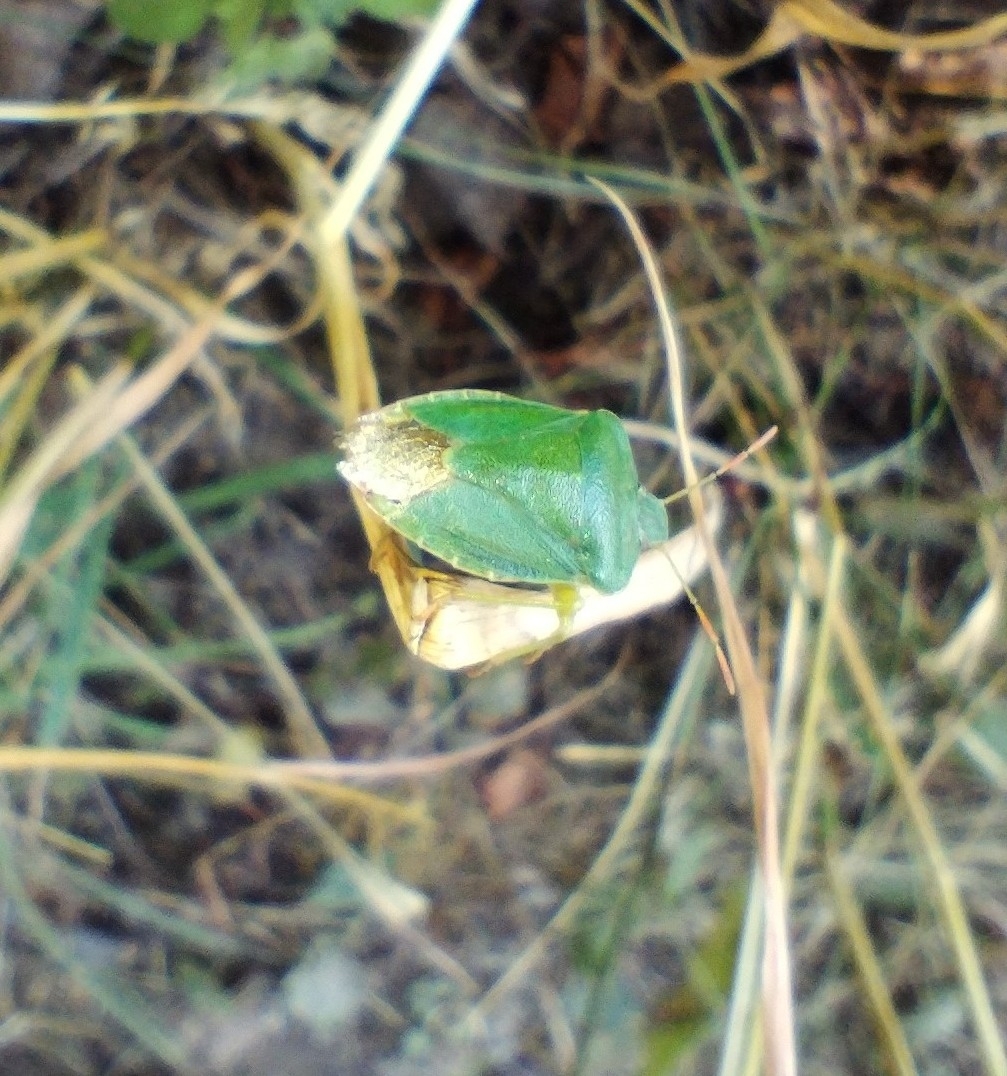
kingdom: Animalia
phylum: Arthropoda
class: Insecta
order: Hemiptera
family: Pentatomidae
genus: Palomena
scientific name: Palomena prasina
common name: Green shieldbug
